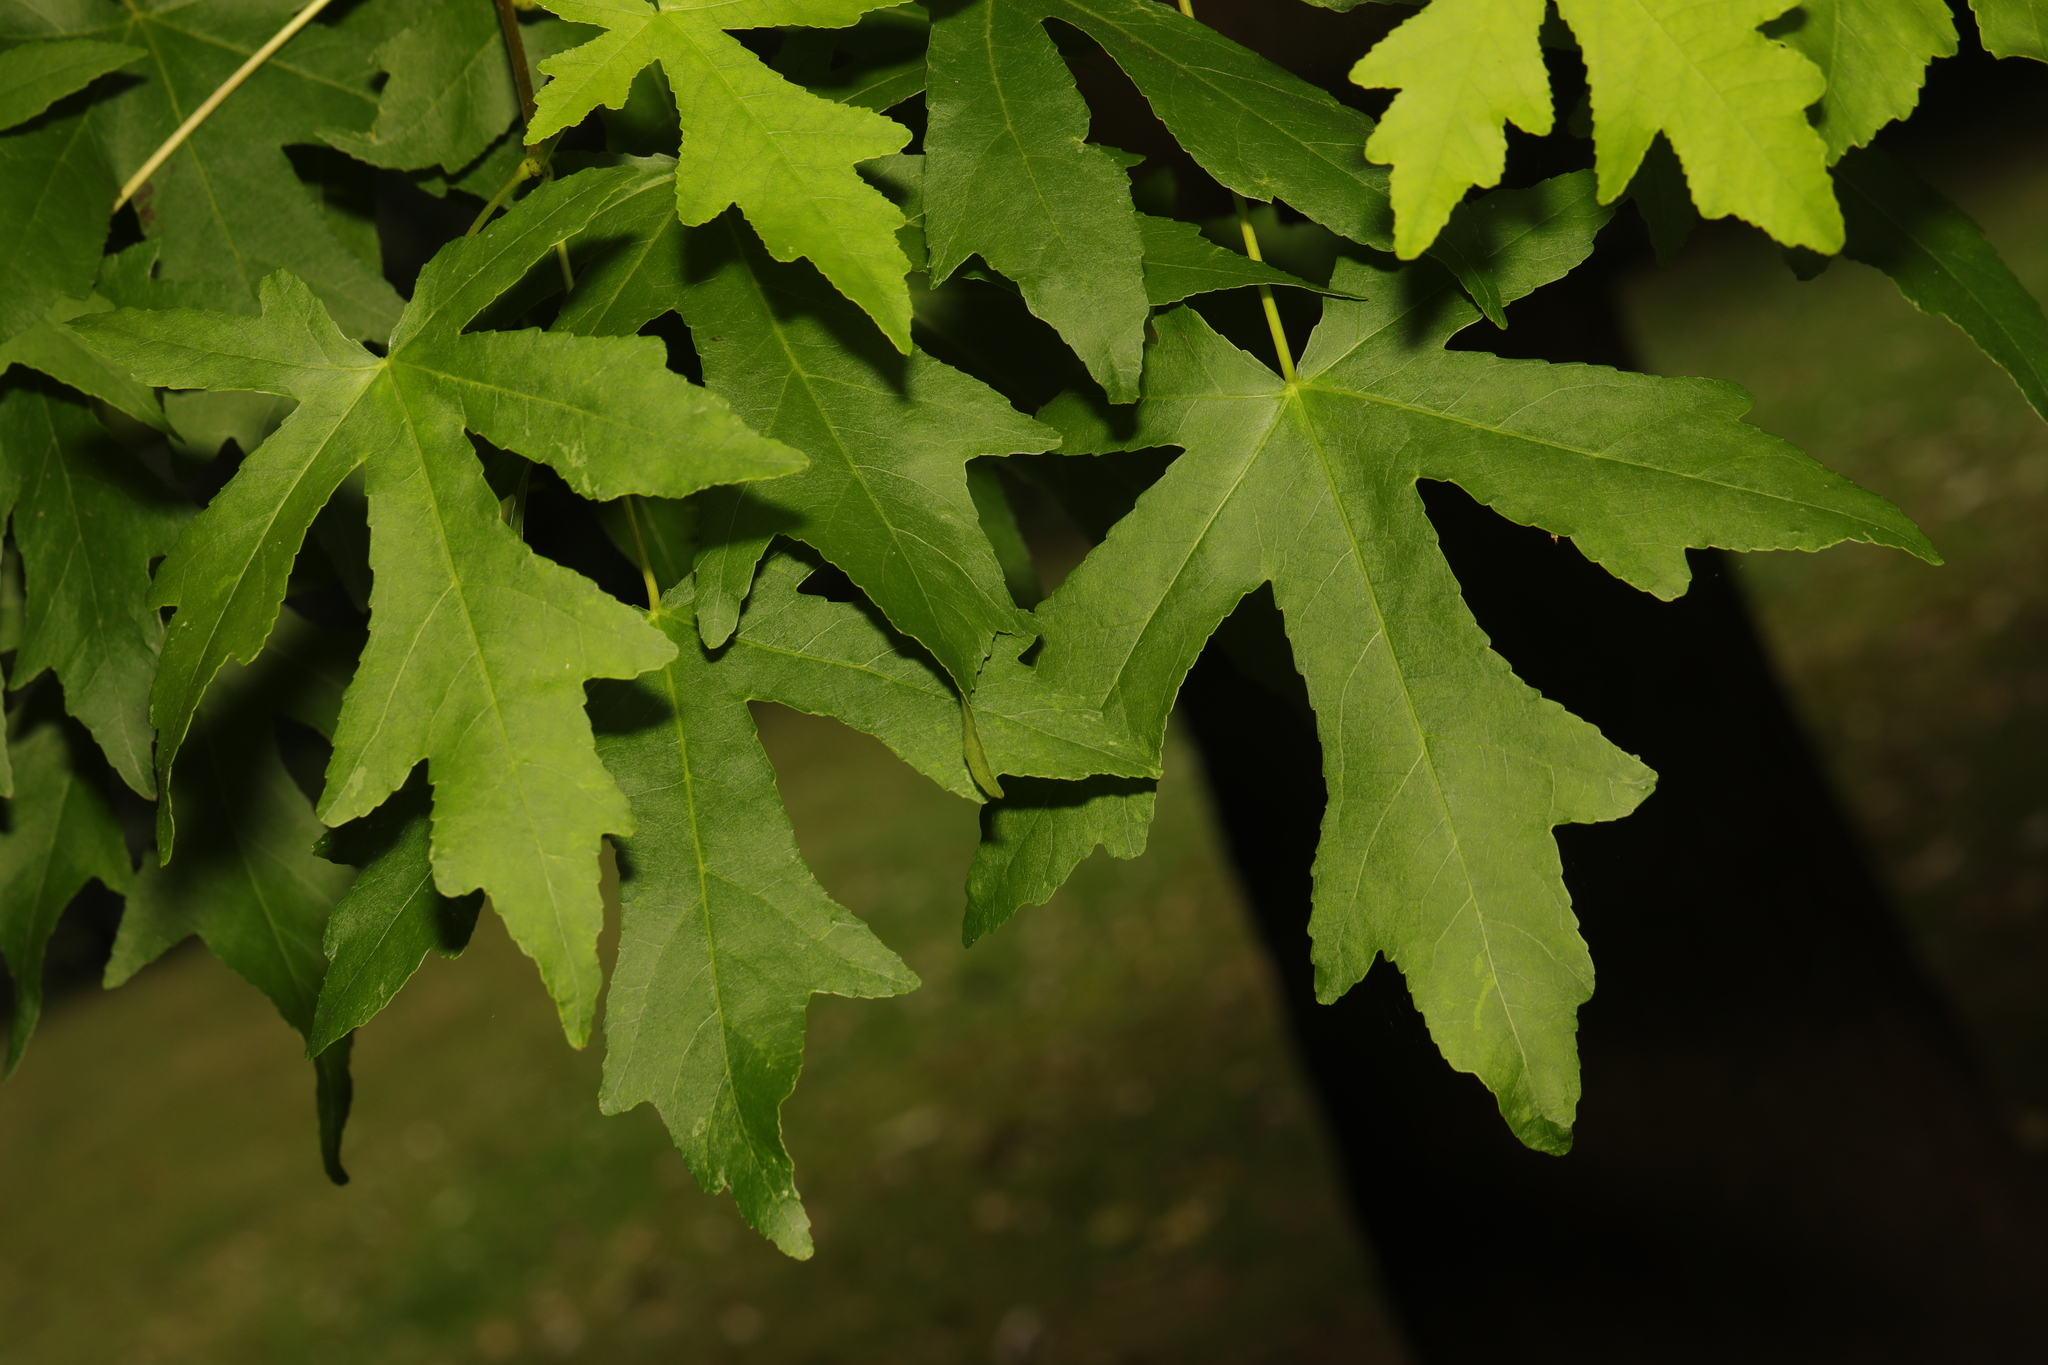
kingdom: Plantae
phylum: Tracheophyta
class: Magnoliopsida
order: Saxifragales
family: Altingiaceae
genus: Liquidambar
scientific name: Liquidambar styraciflua
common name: Sweet gum
